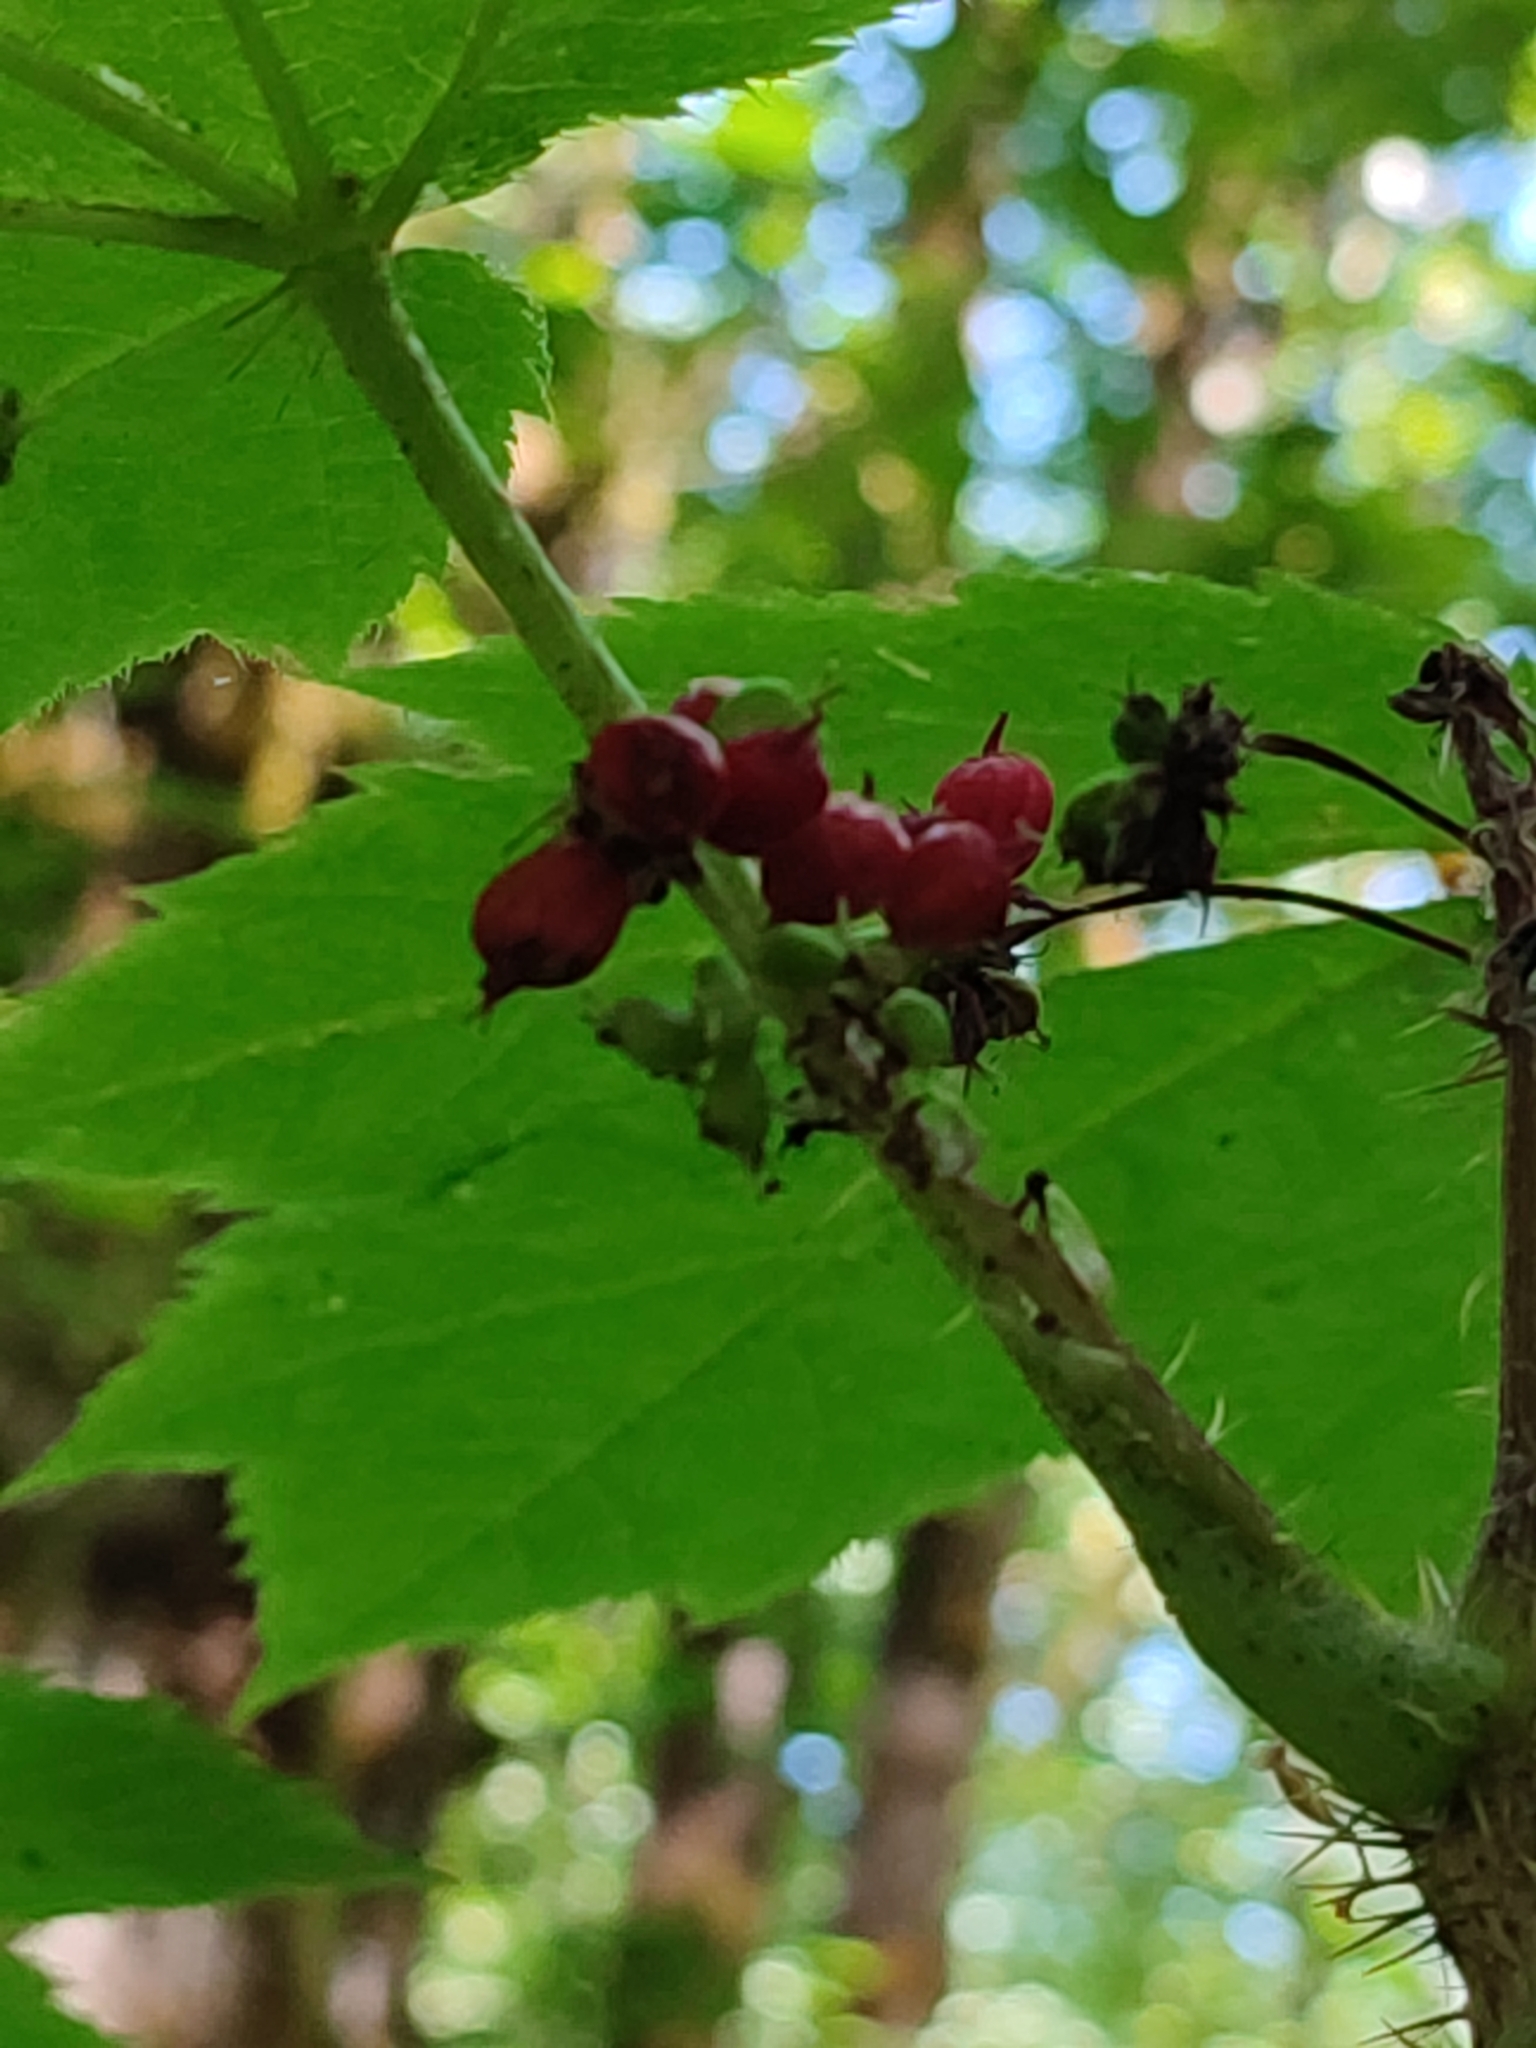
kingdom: Plantae
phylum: Tracheophyta
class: Magnoliopsida
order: Apiales
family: Araliaceae
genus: Oplopanax
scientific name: Oplopanax horridus
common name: Devil's walking-stick
